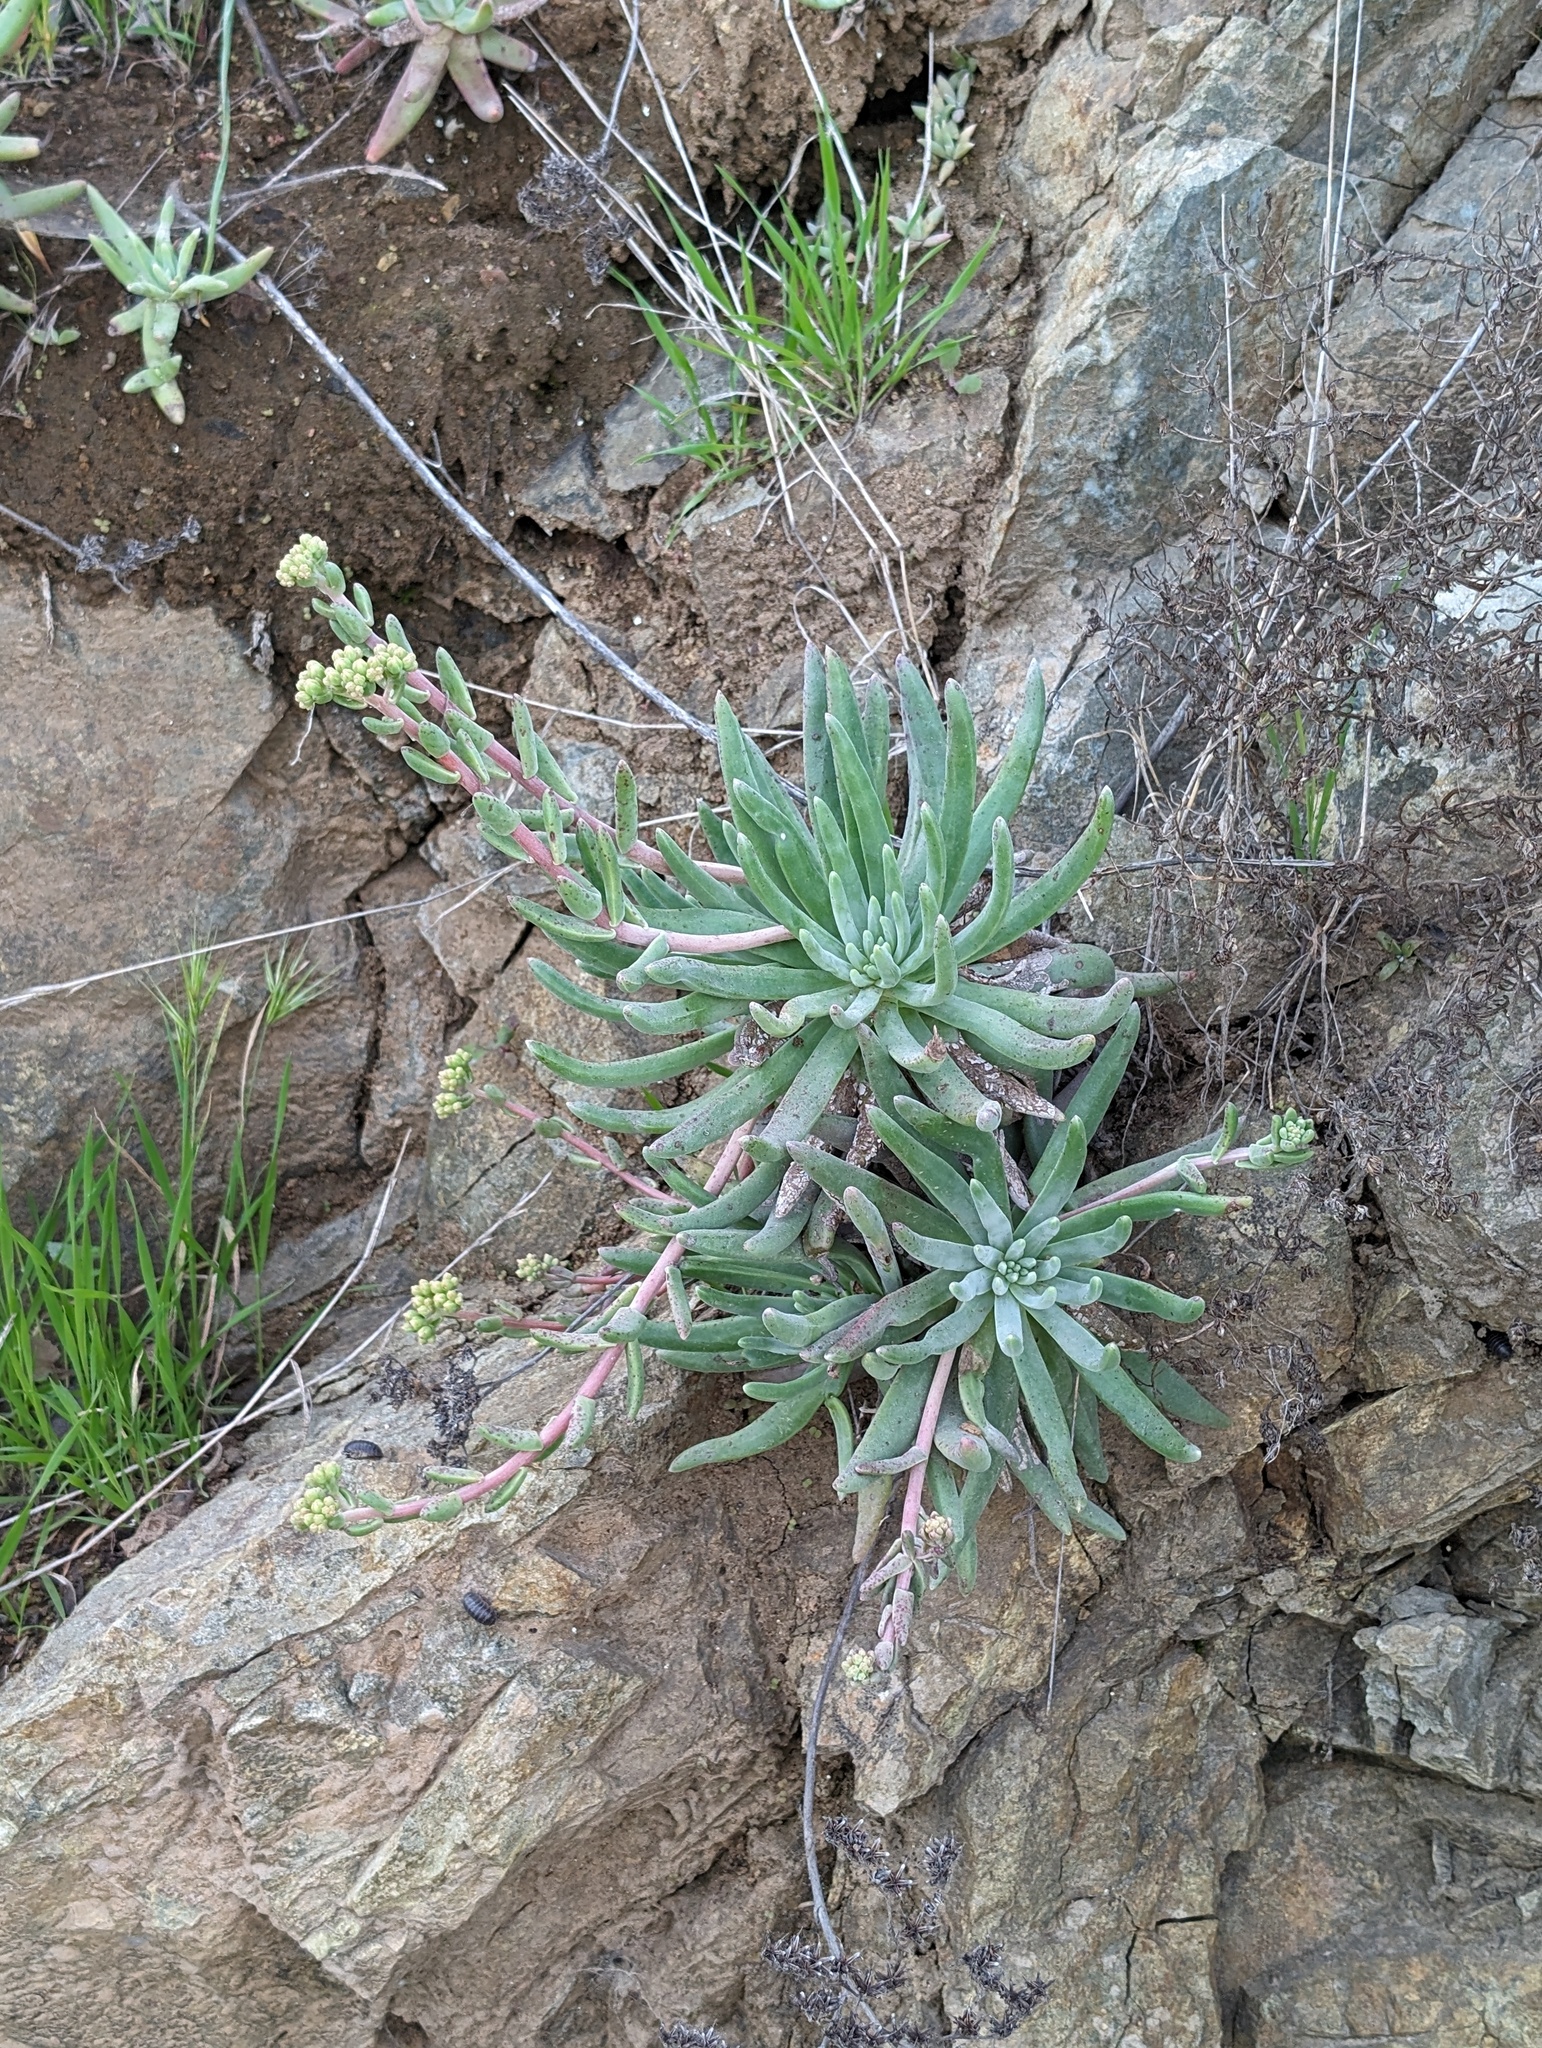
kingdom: Plantae
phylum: Tracheophyta
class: Magnoliopsida
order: Saxifragales
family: Crassulaceae
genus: Dudleya
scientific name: Dudleya virens
